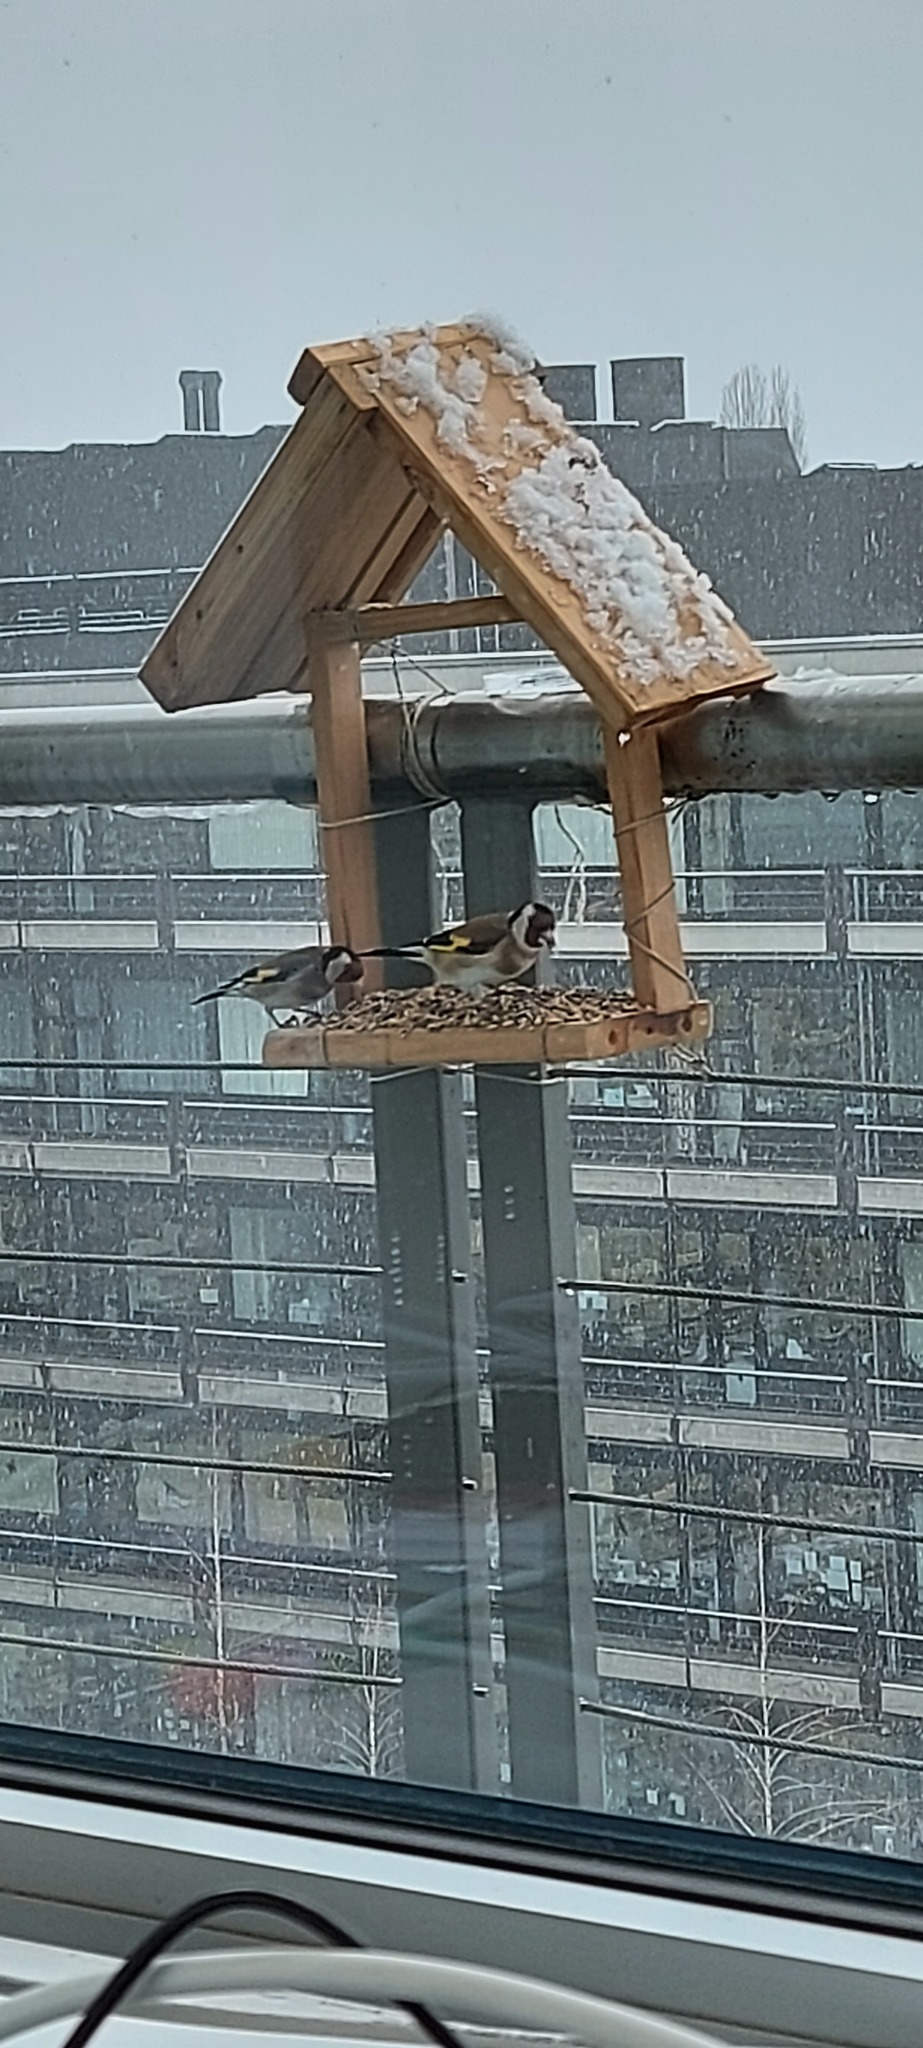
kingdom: Animalia
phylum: Chordata
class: Aves
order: Passeriformes
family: Fringillidae
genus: Carduelis
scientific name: Carduelis carduelis
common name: European goldfinch
